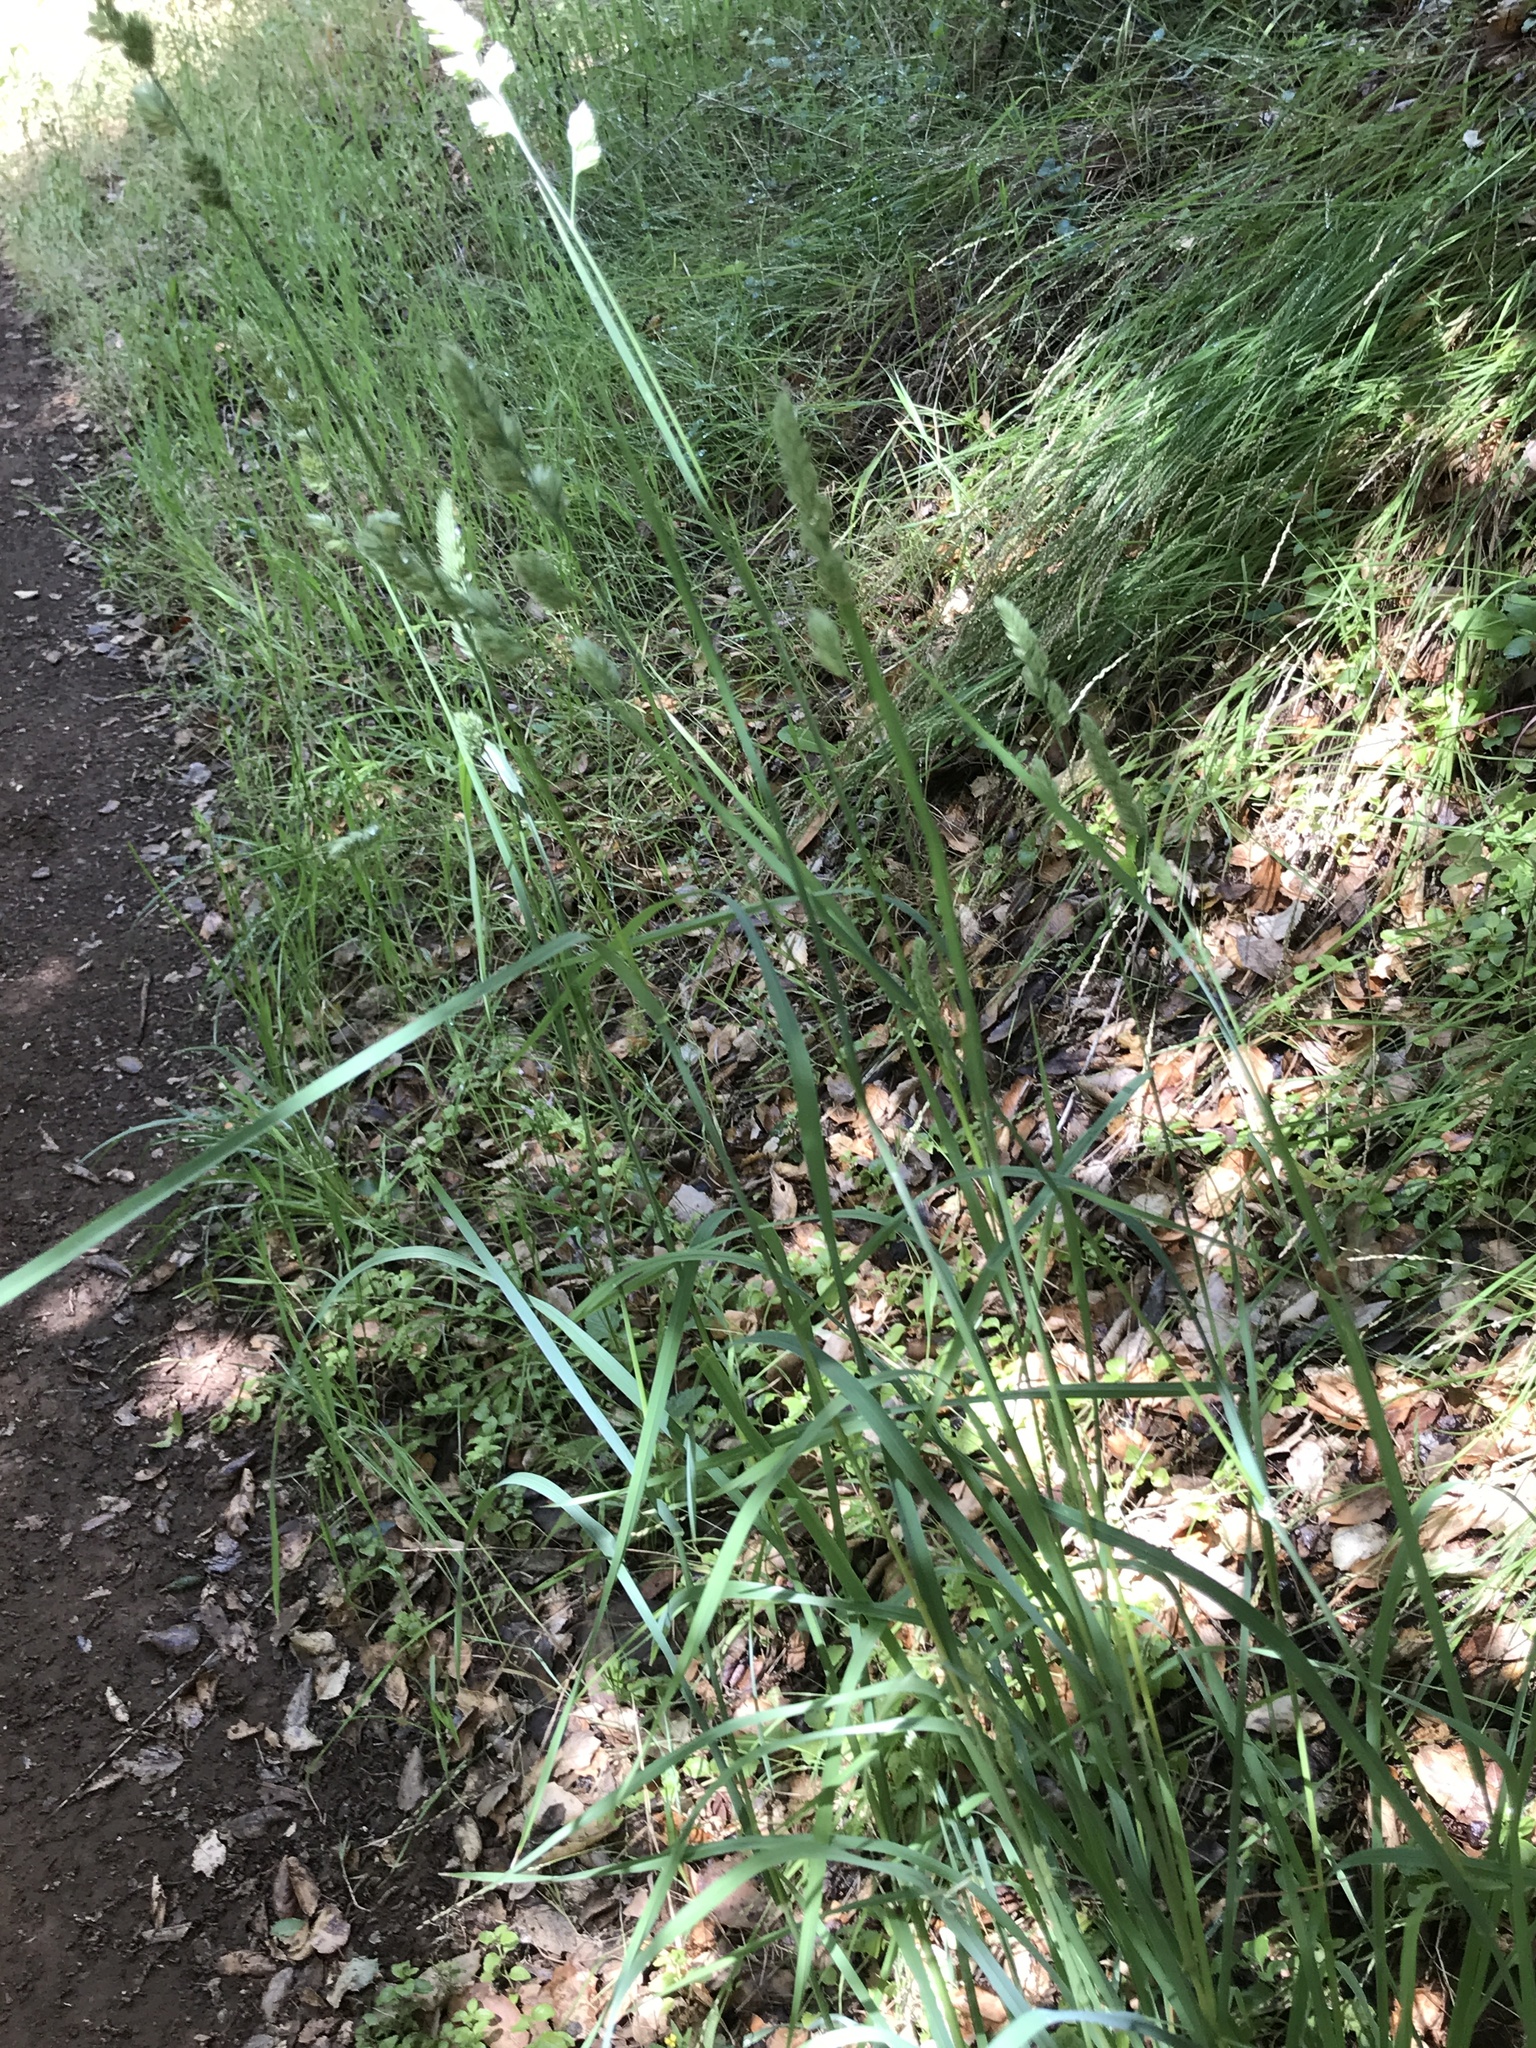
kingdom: Plantae
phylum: Tracheophyta
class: Liliopsida
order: Poales
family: Poaceae
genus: Dactylis
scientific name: Dactylis glomerata
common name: Orchardgrass
